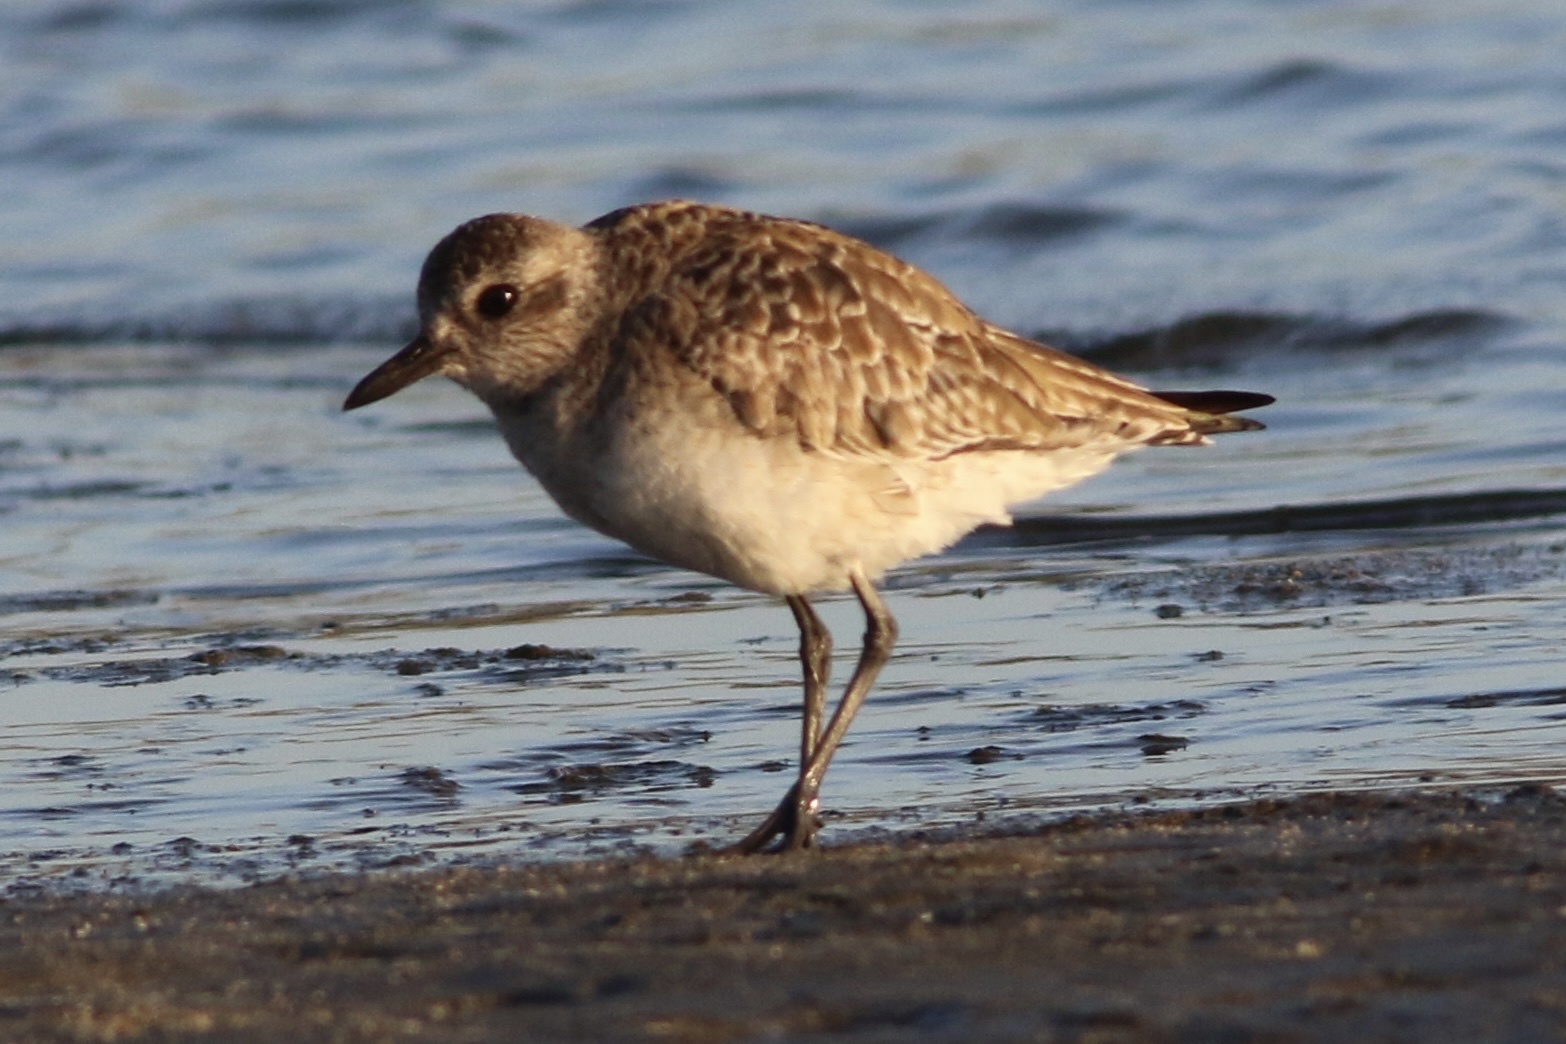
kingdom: Animalia
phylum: Chordata
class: Aves
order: Charadriiformes
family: Charadriidae
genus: Pluvialis
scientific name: Pluvialis squatarola
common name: Grey plover
